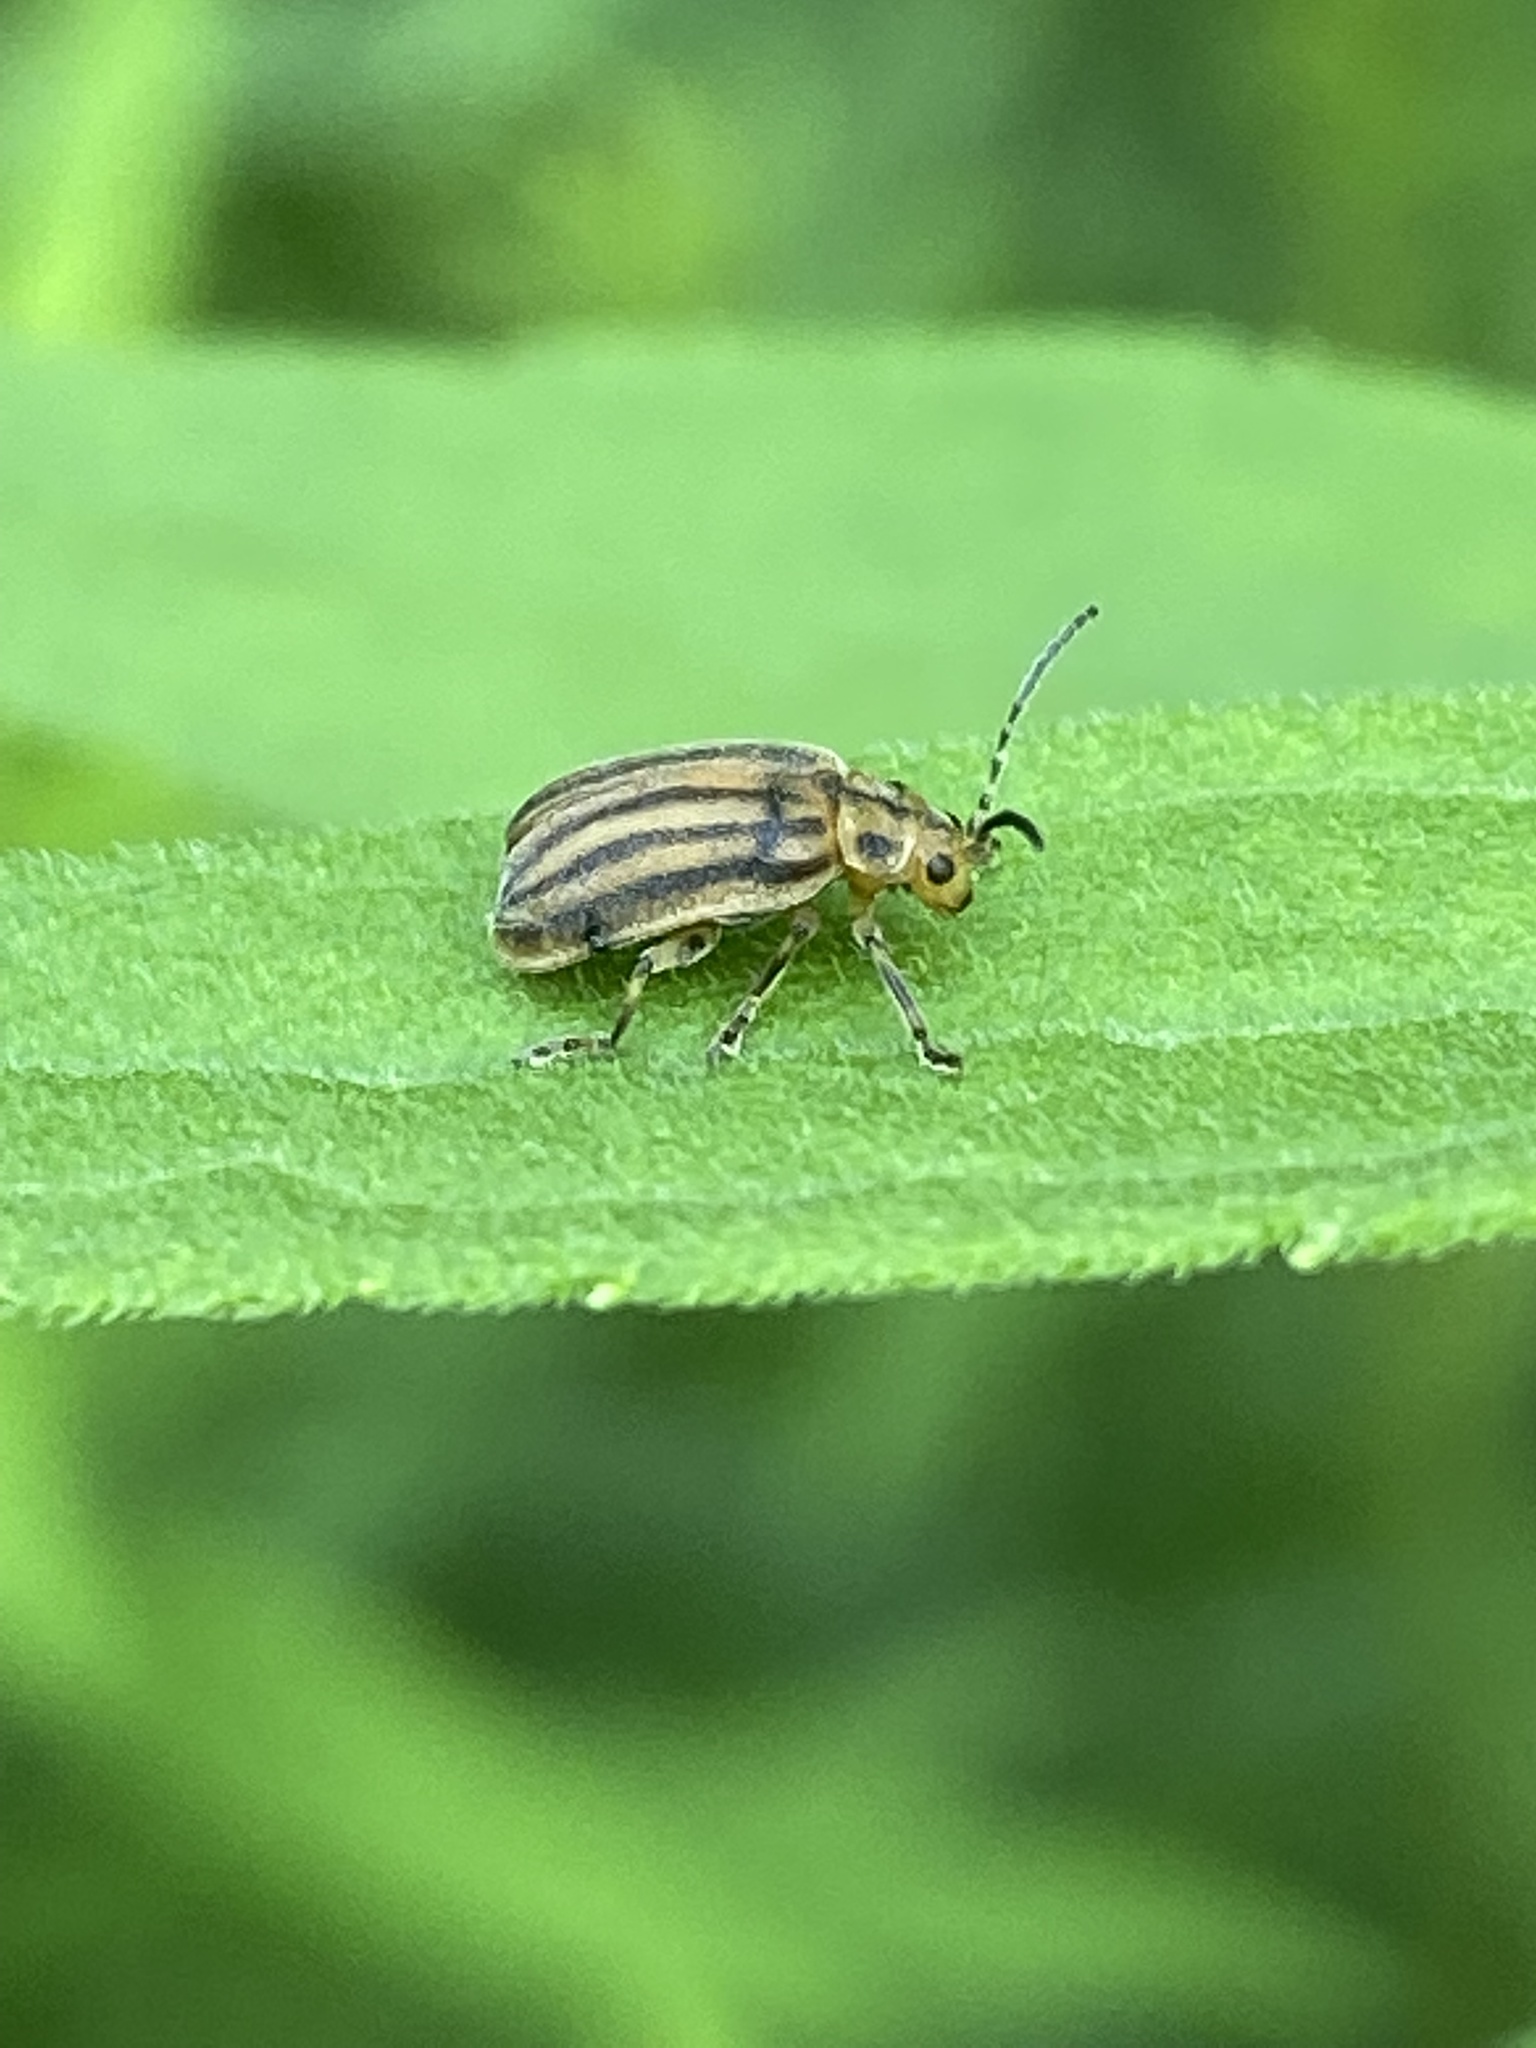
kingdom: Animalia
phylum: Arthropoda
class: Insecta
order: Coleoptera
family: Chrysomelidae
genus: Ophraella
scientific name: Ophraella communa
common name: Ragweed leaf beetle
